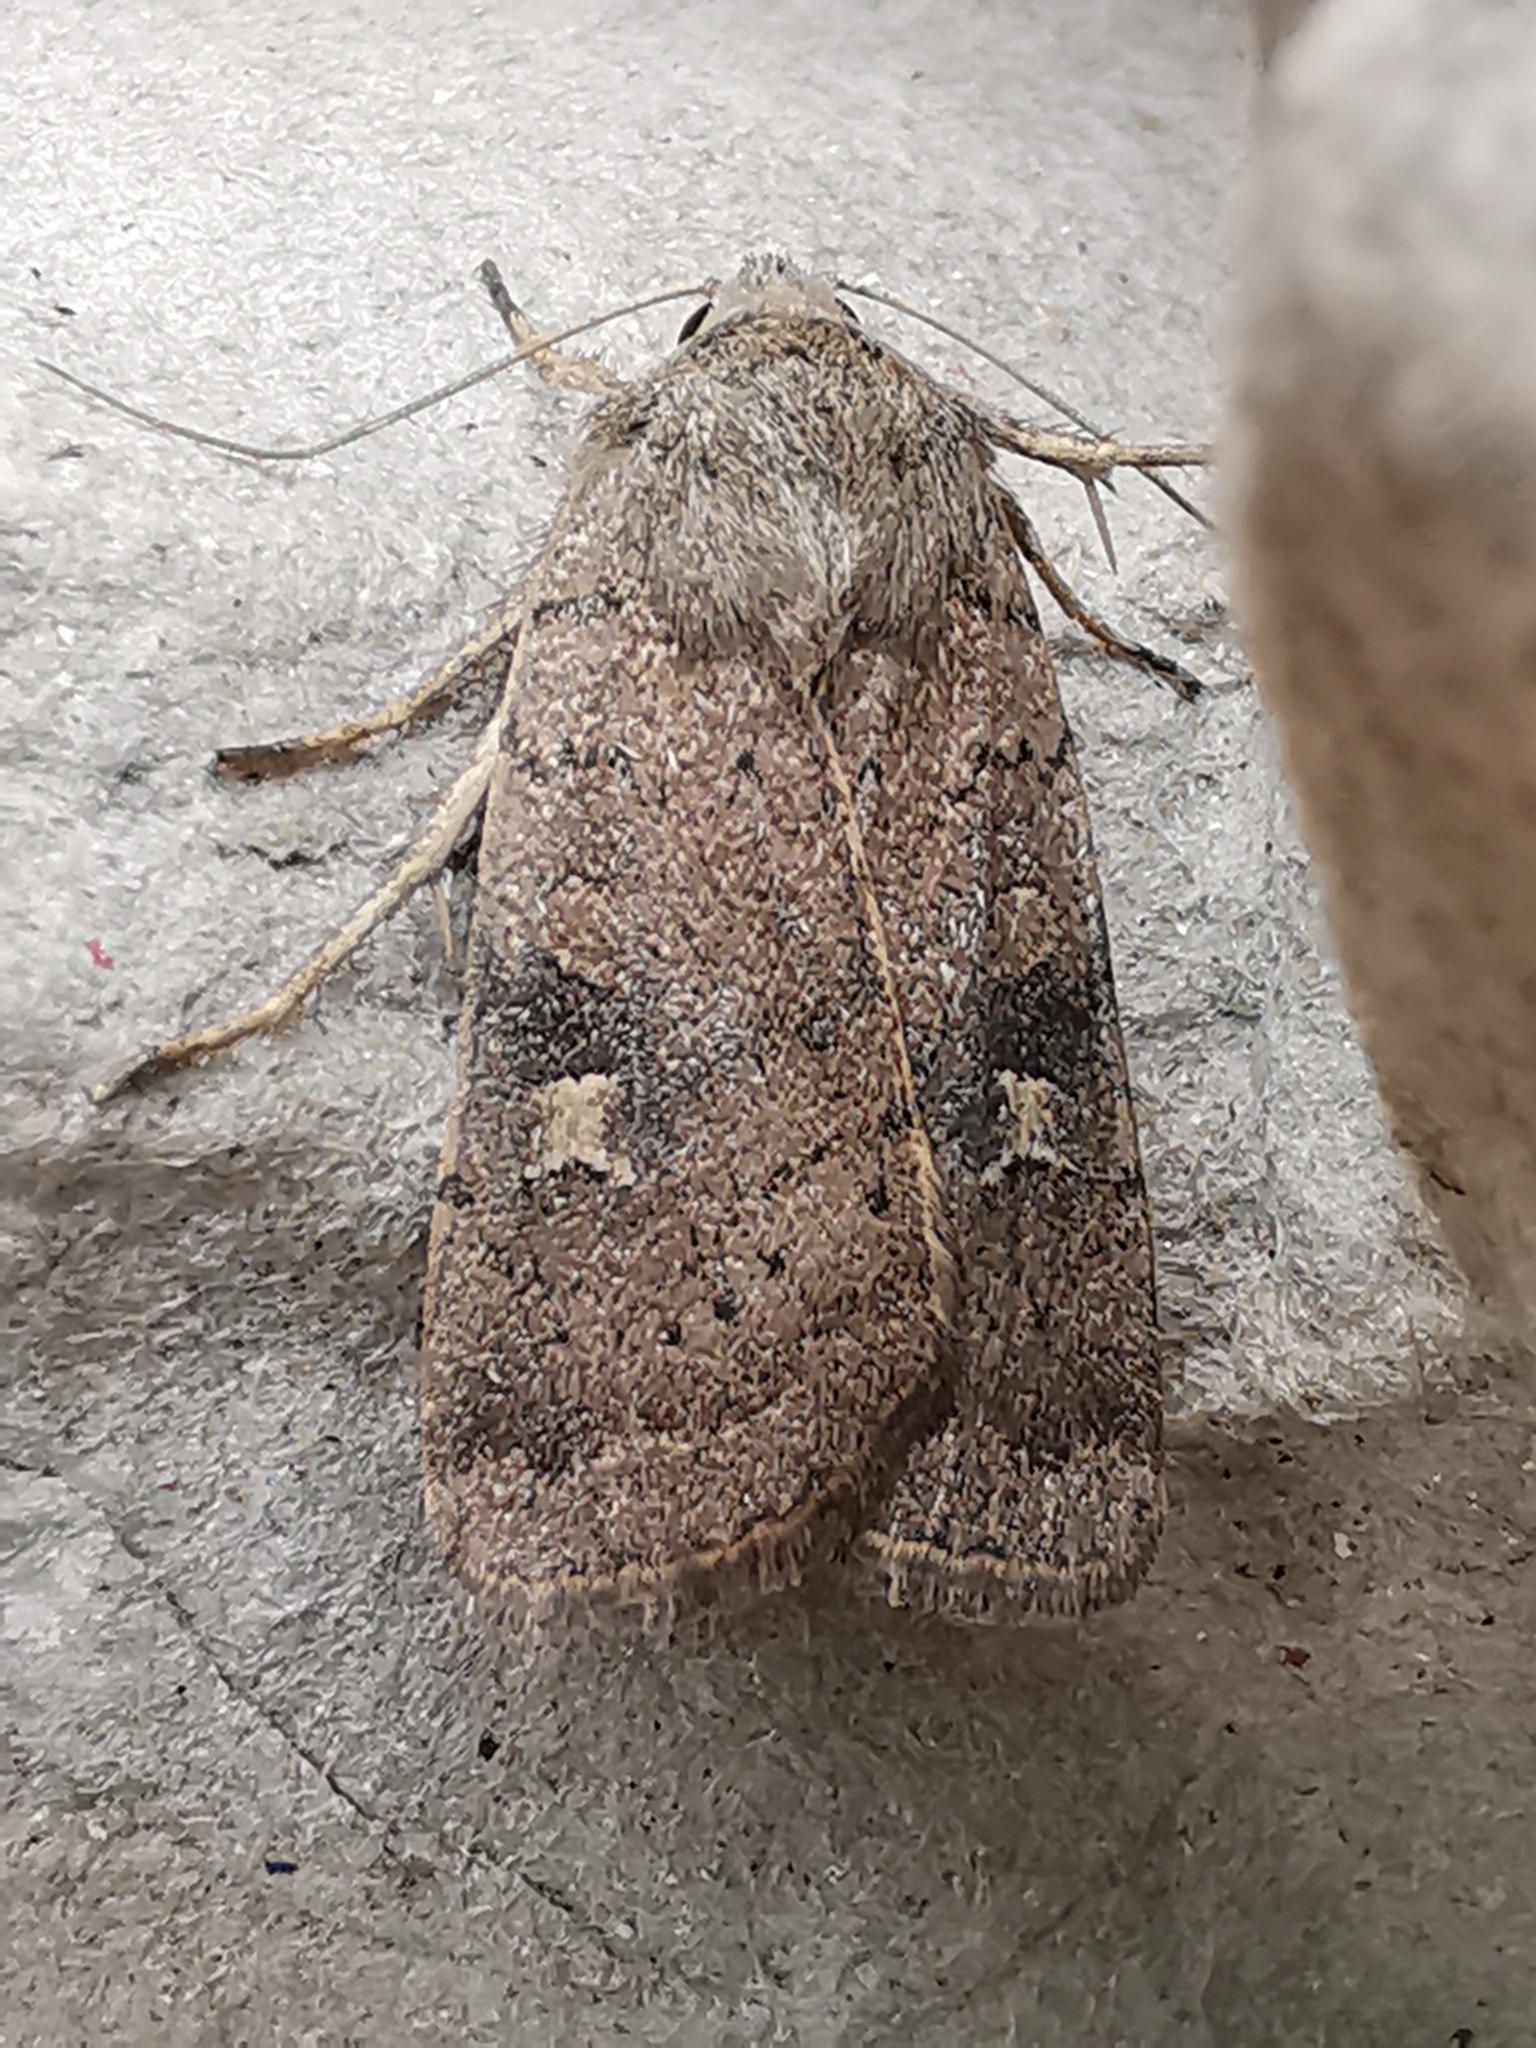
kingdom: Animalia
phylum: Arthropoda
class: Insecta
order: Lepidoptera
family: Noctuidae
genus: Xestia
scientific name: Xestia xanthographa
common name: Square-spot rustic
